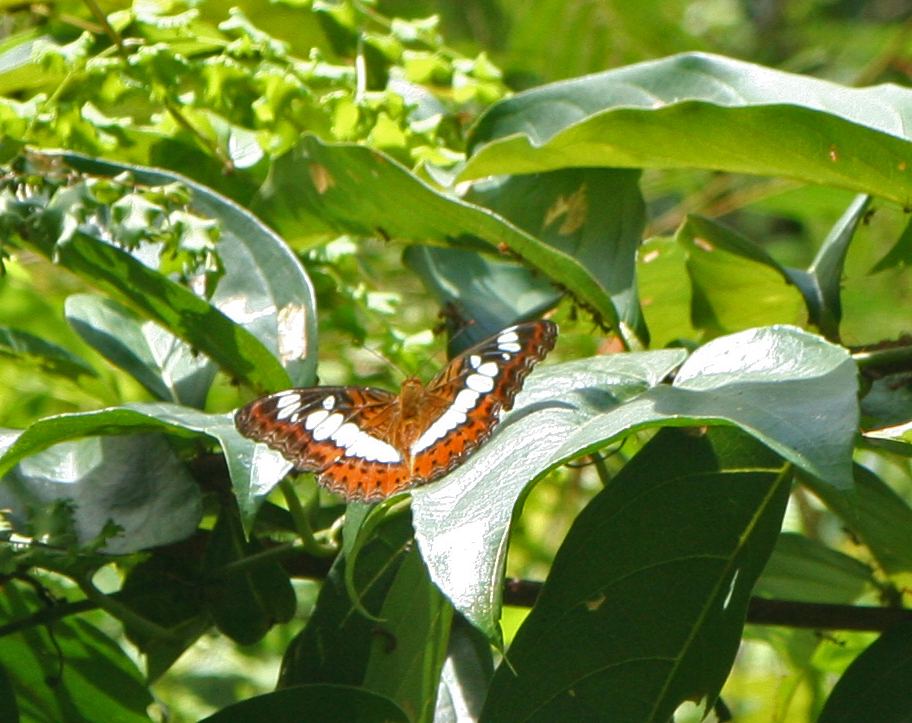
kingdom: Animalia
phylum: Arthropoda
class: Insecta
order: Lepidoptera
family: Nymphalidae
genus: Limenitis
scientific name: Limenitis Moduza procris
